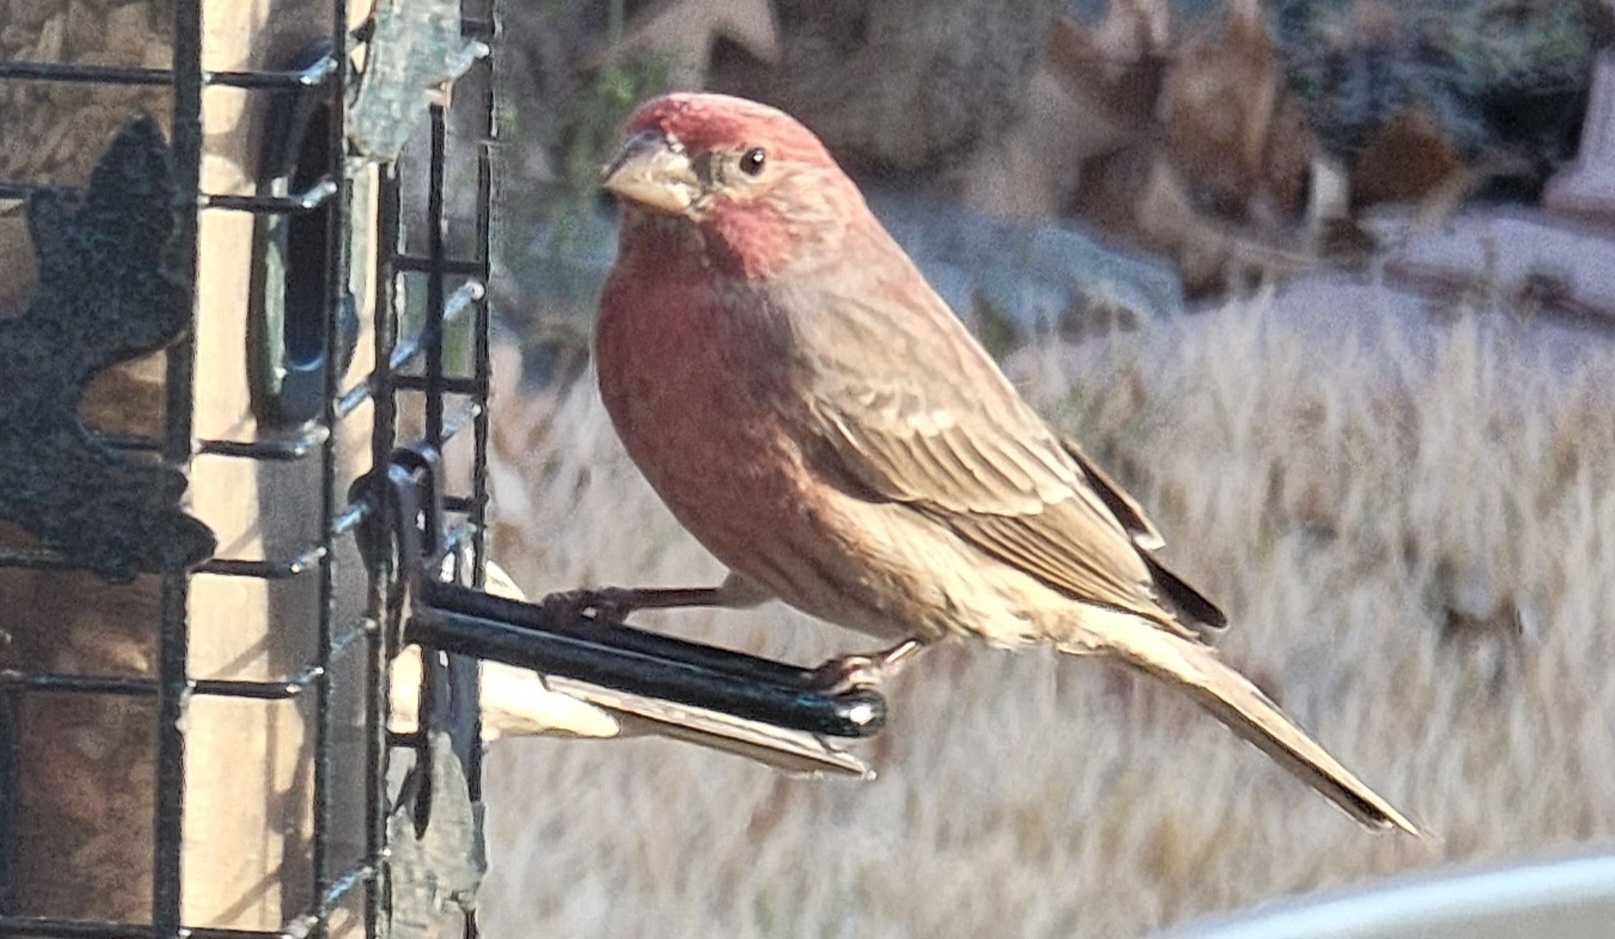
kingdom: Animalia
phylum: Chordata
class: Aves
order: Passeriformes
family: Fringillidae
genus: Haemorhous
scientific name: Haemorhous mexicanus
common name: House finch
